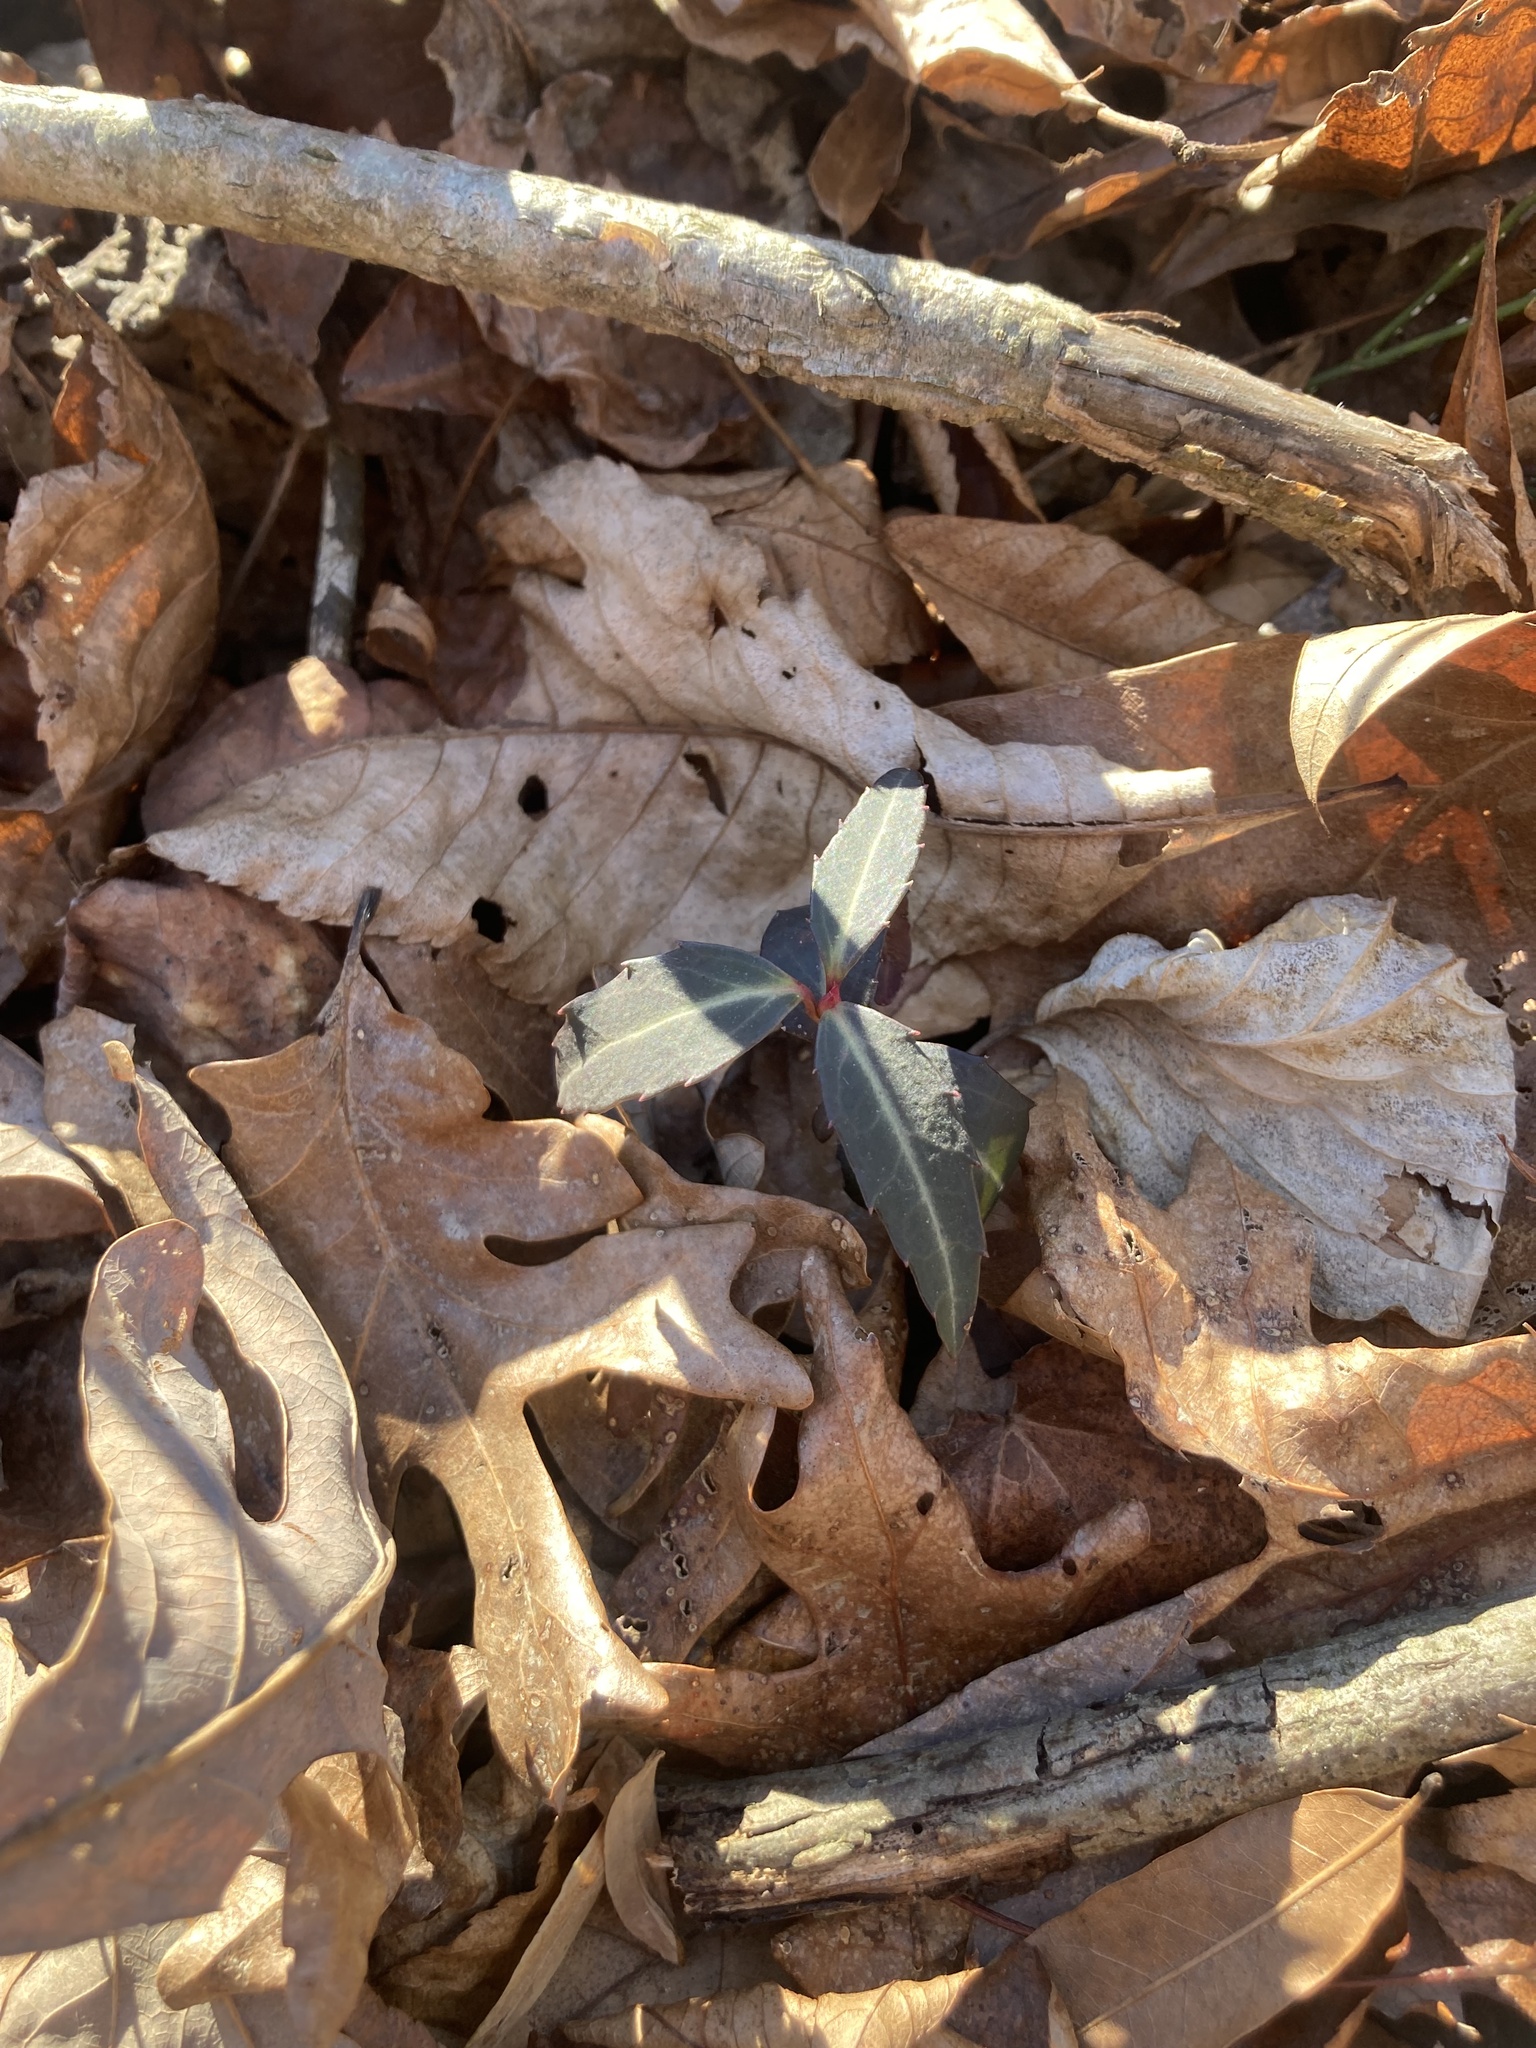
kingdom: Plantae
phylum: Tracheophyta
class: Magnoliopsida
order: Ericales
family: Ericaceae
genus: Chimaphila
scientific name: Chimaphila maculata
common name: Spotted pipsissewa
